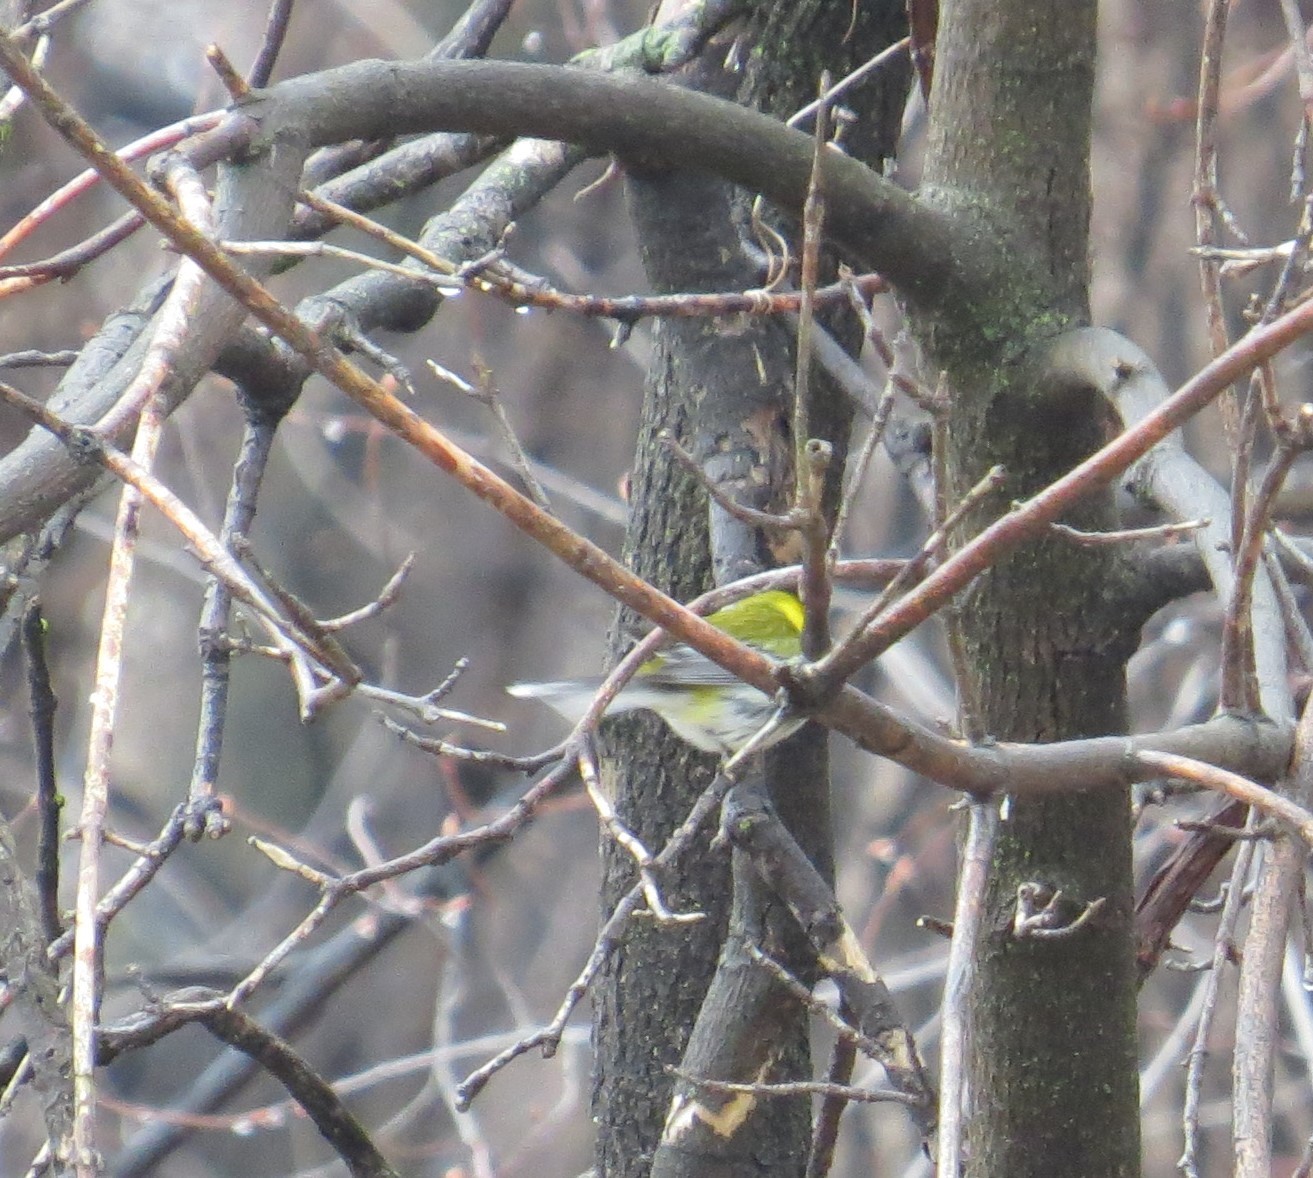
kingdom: Animalia
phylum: Chordata
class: Aves
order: Passeriformes
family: Parulidae
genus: Setophaga
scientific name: Setophaga virens
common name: Black-throated green warbler
